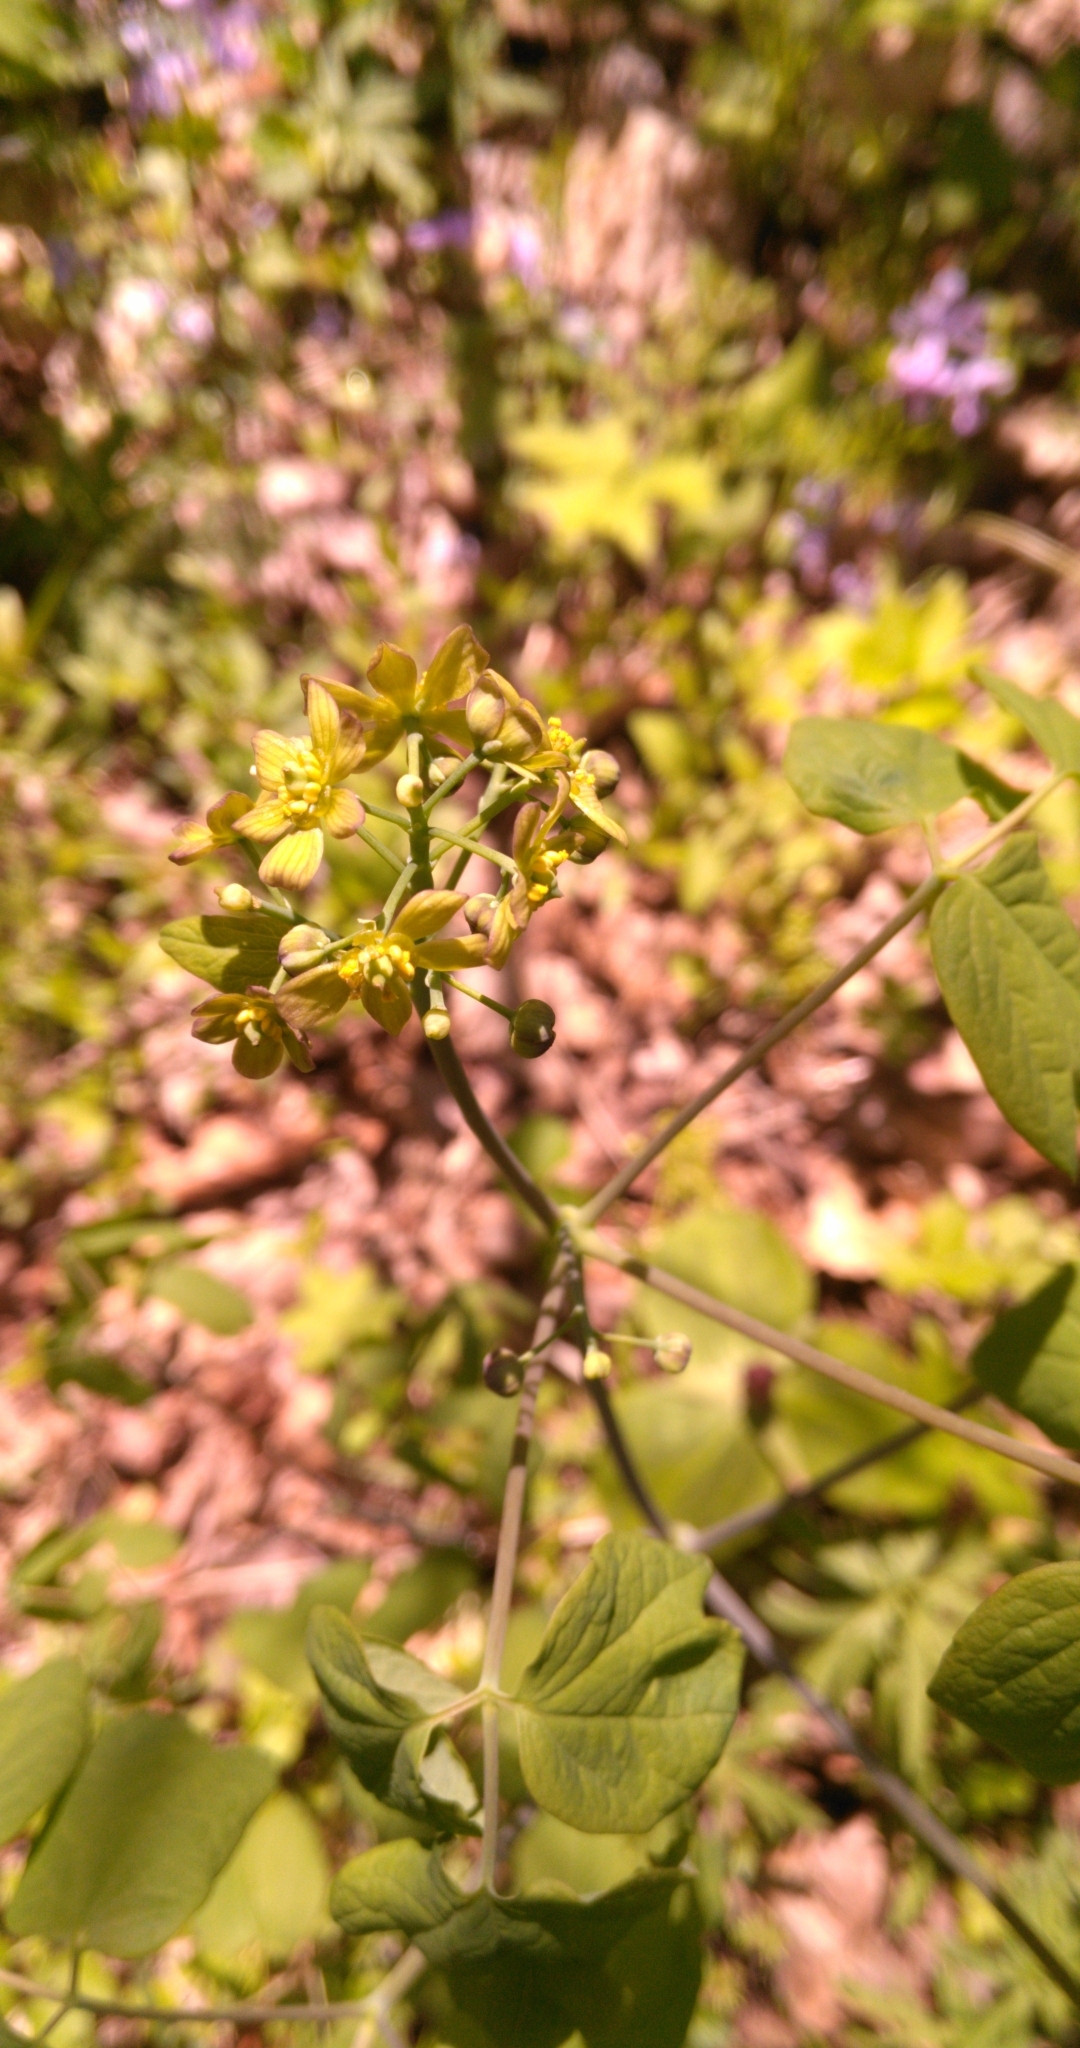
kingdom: Plantae
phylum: Tracheophyta
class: Magnoliopsida
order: Ranunculales
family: Berberidaceae
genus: Caulophyllum
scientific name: Caulophyllum thalictroides
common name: Blue cohosh
